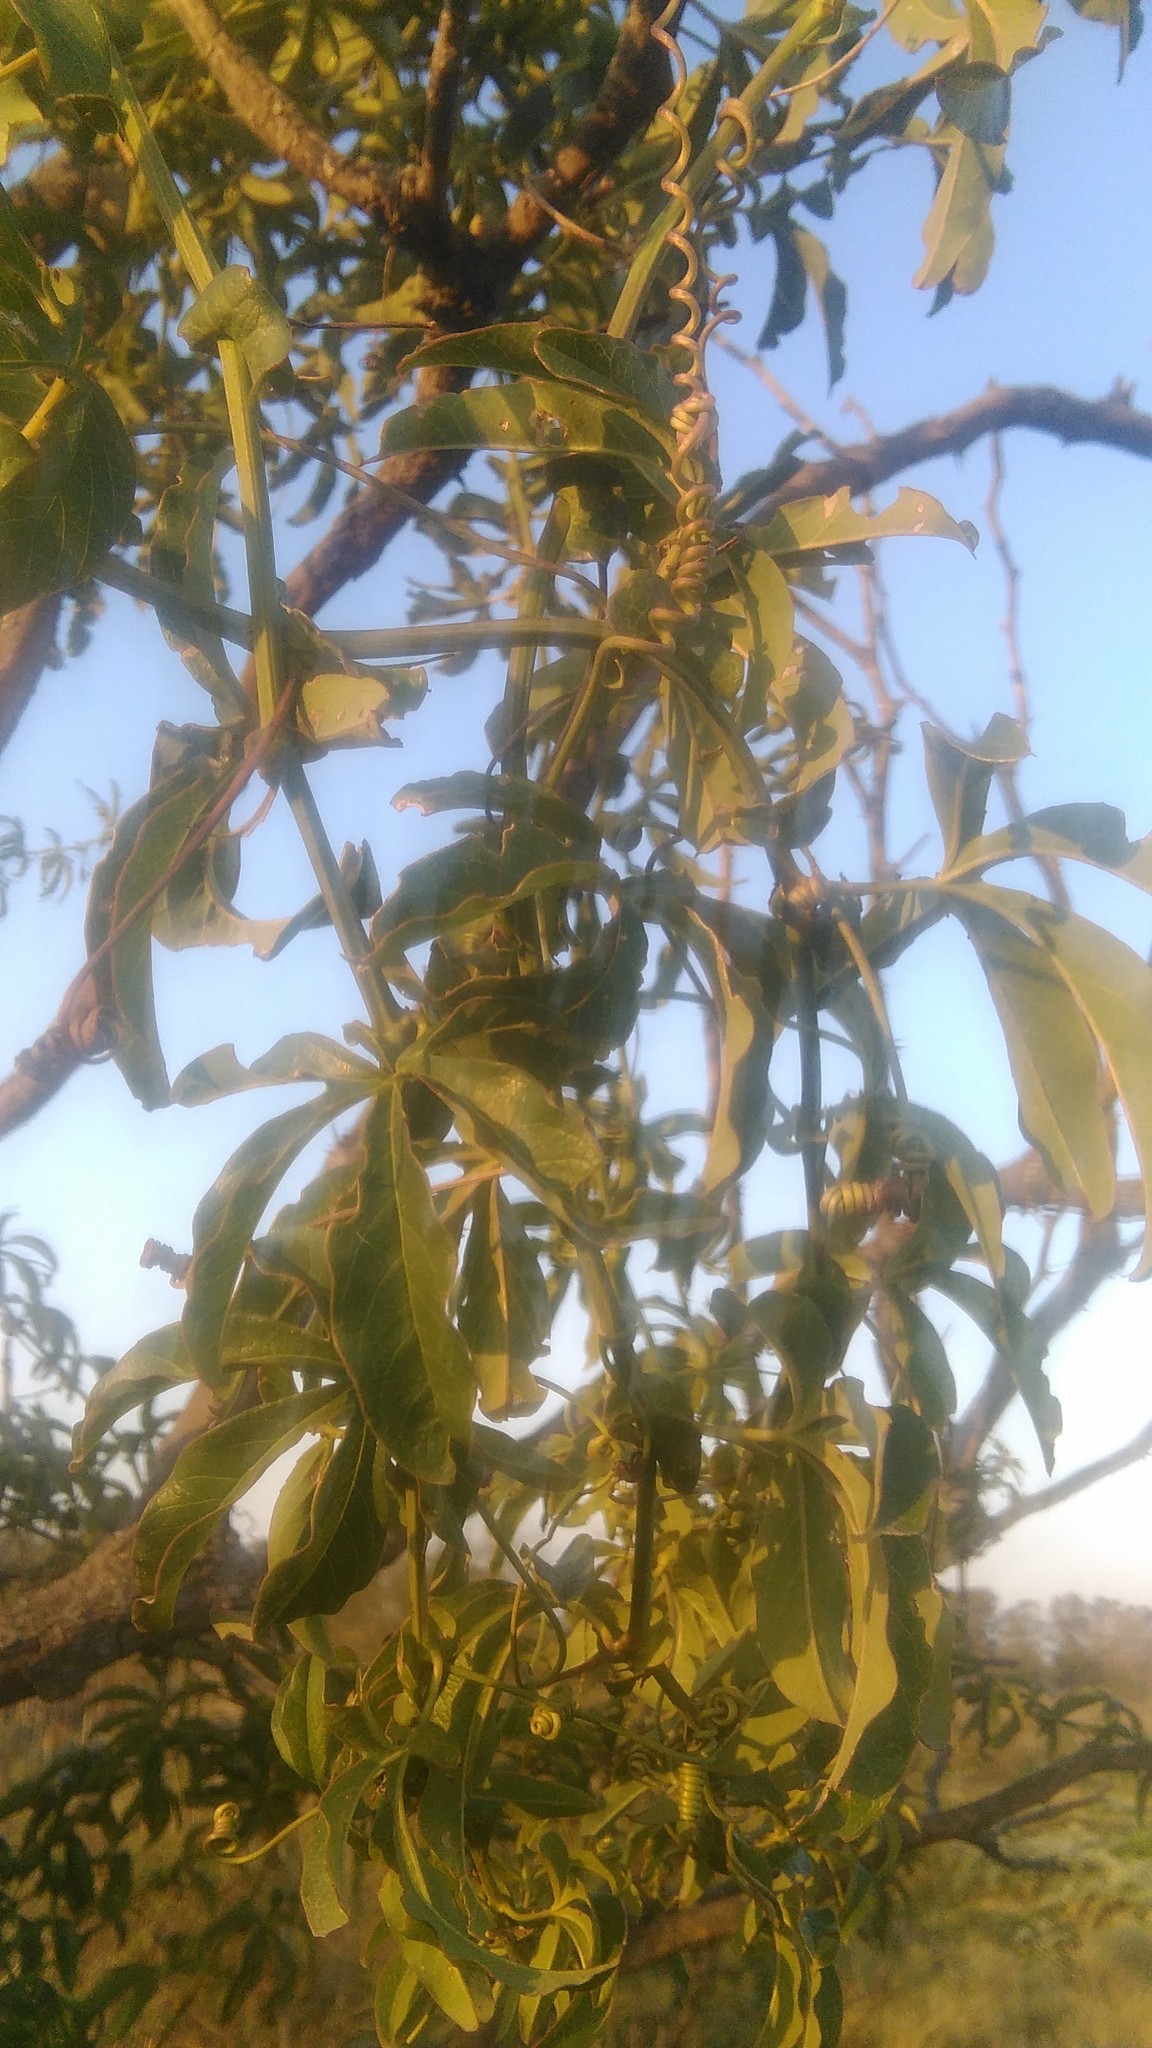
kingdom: Plantae
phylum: Tracheophyta
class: Magnoliopsida
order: Malpighiales
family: Passifloraceae
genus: Passiflora
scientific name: Passiflora caerulea
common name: Blue passionflower
